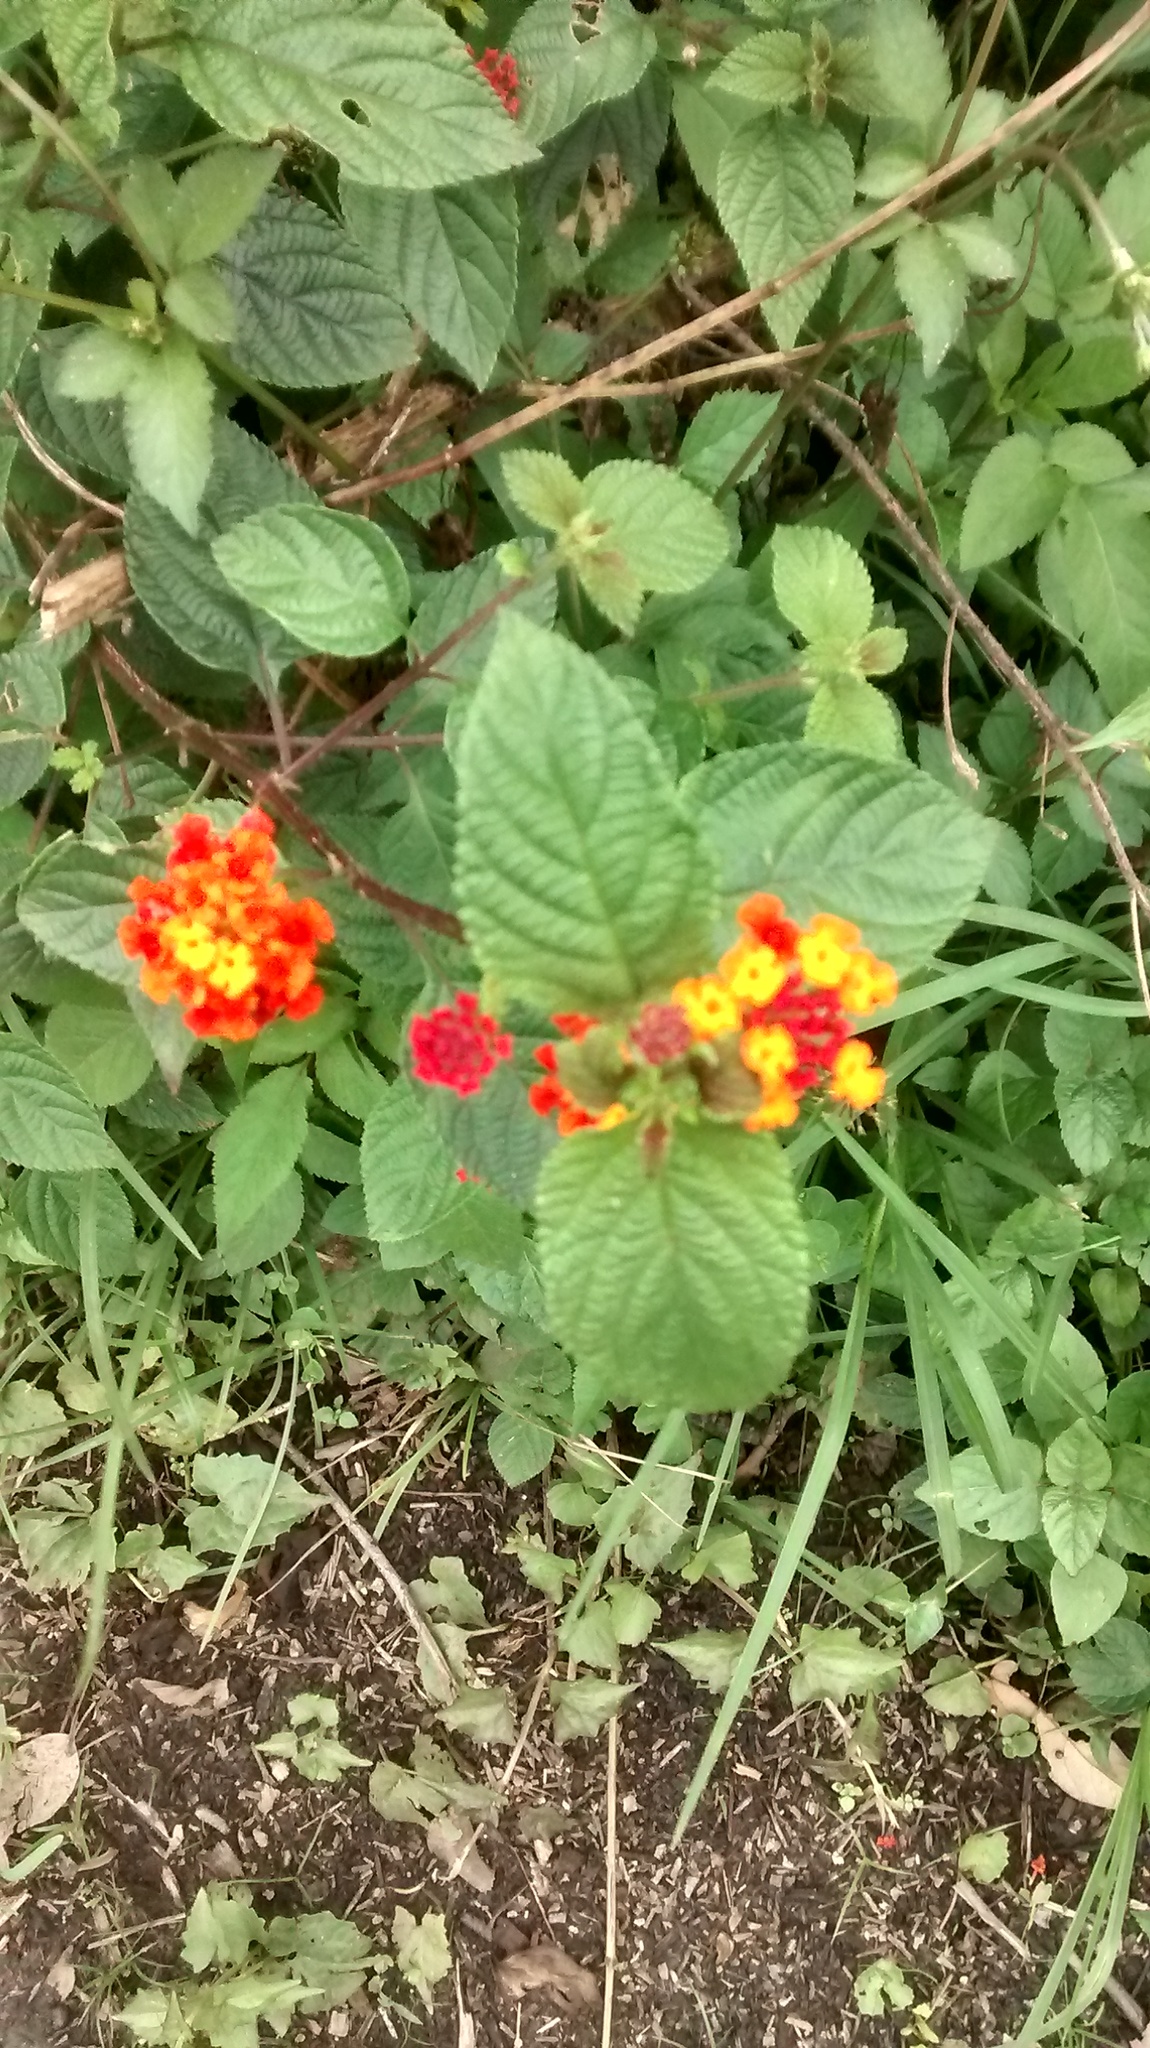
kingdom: Plantae
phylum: Tracheophyta
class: Magnoliopsida
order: Lamiales
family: Verbenaceae
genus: Lantana
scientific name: Lantana camara
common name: Lantana
